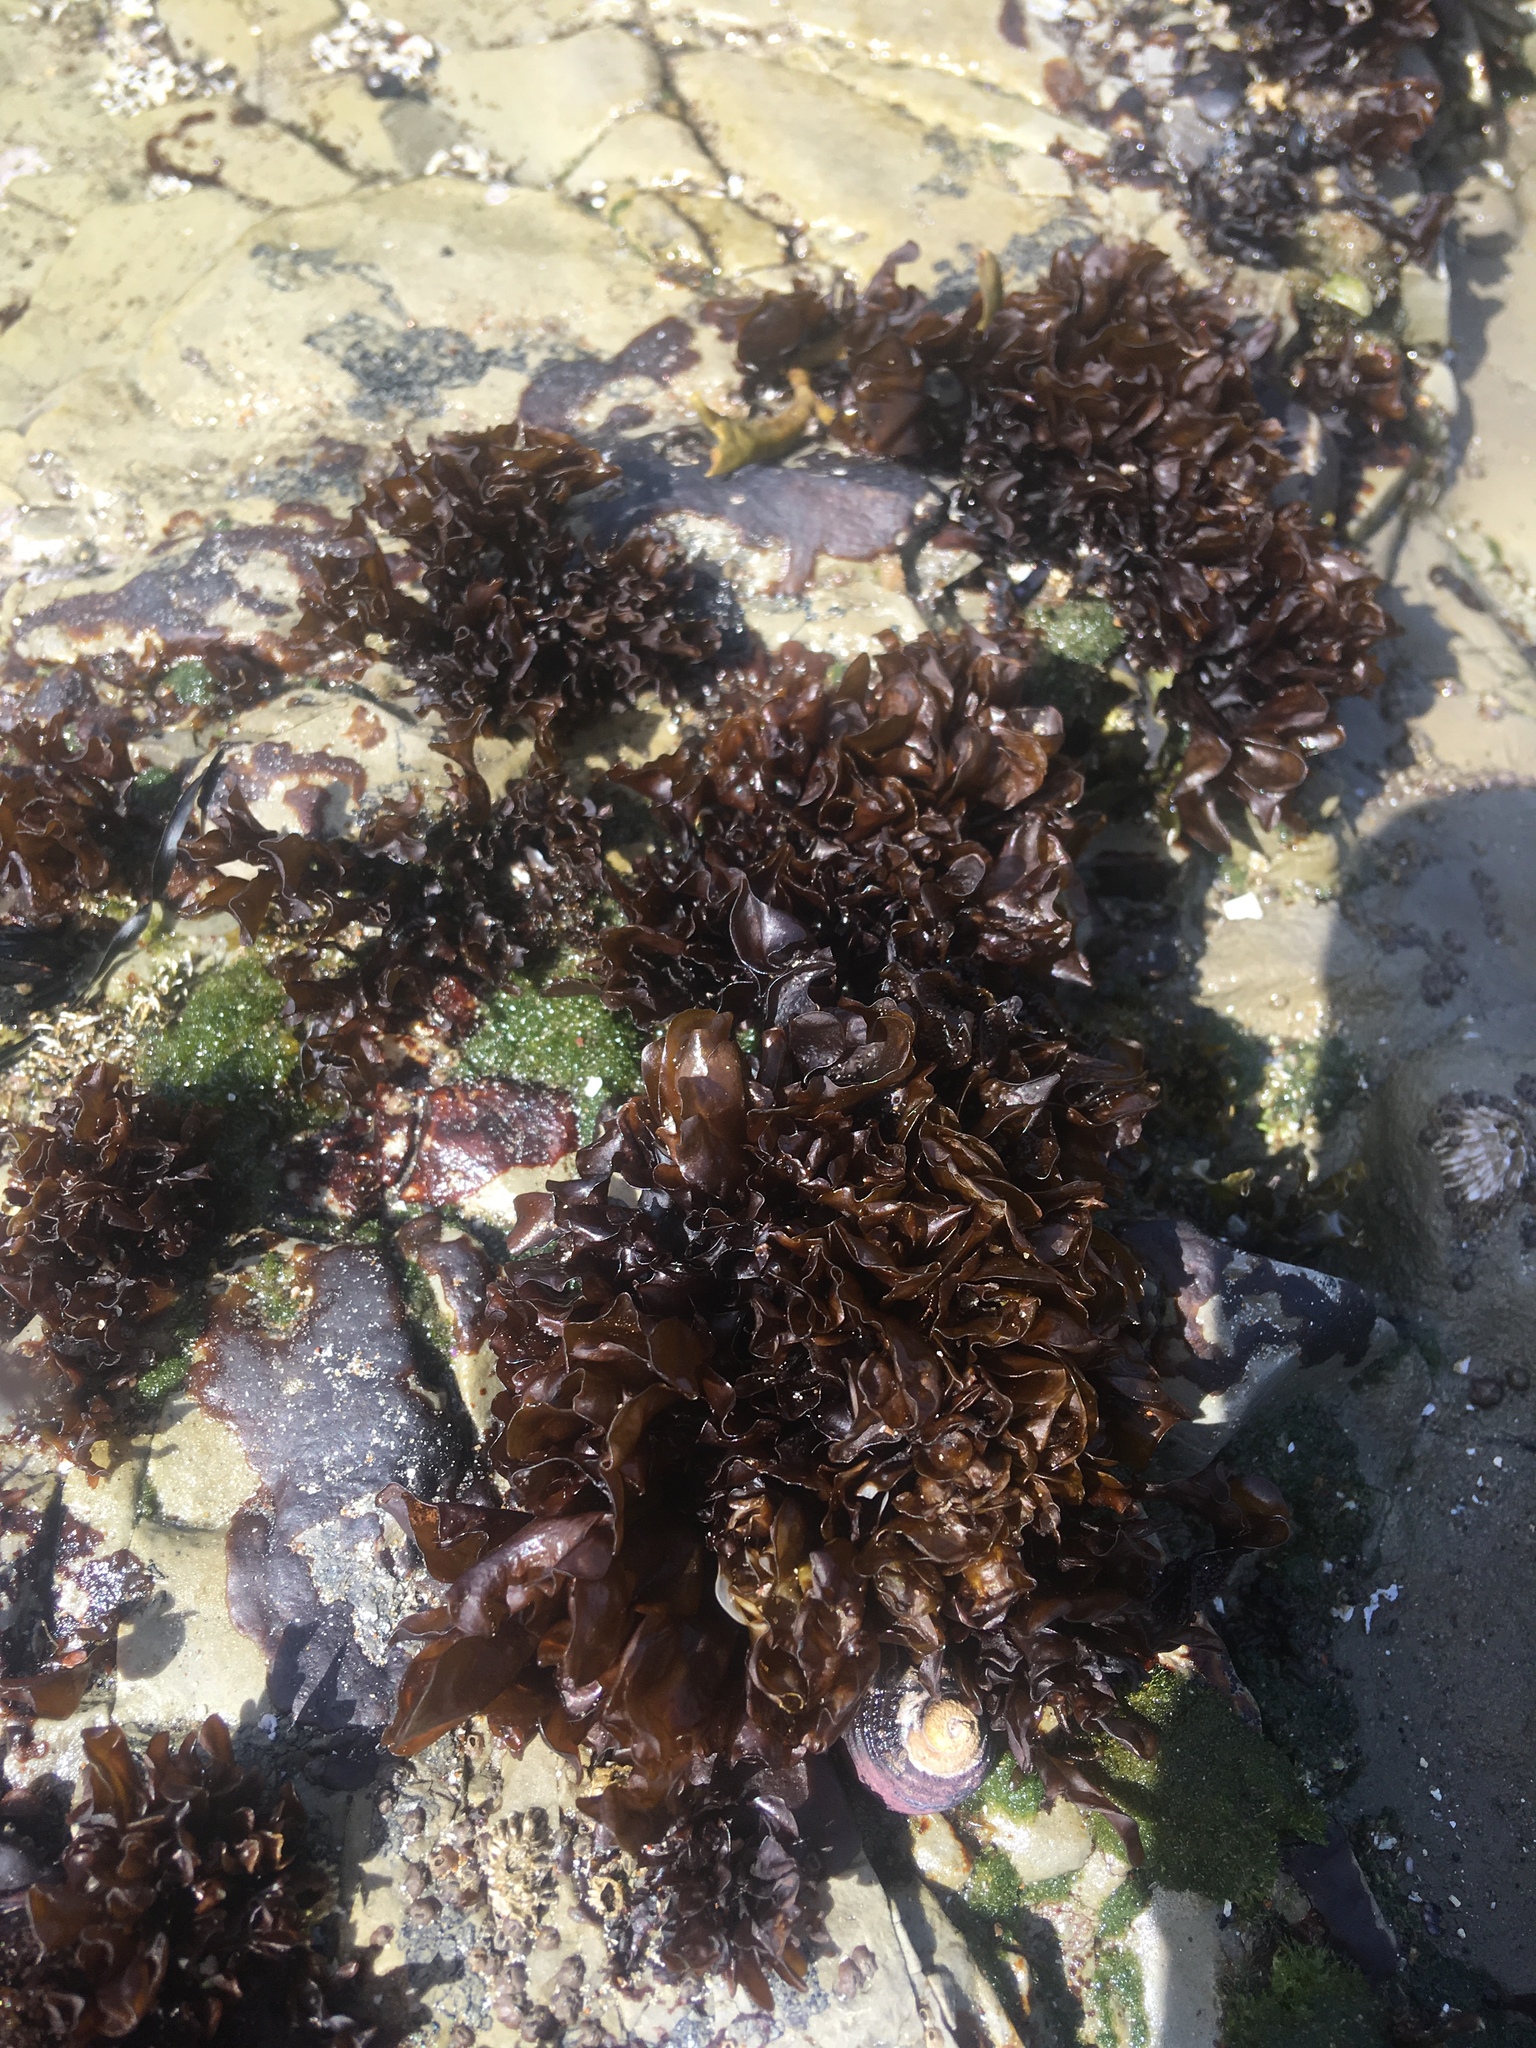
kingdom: Plantae
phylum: Rhodophyta
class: Florideophyceae
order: Gigartinales
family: Phyllophoraceae
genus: Mastocarpus
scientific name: Mastocarpus papillatus
